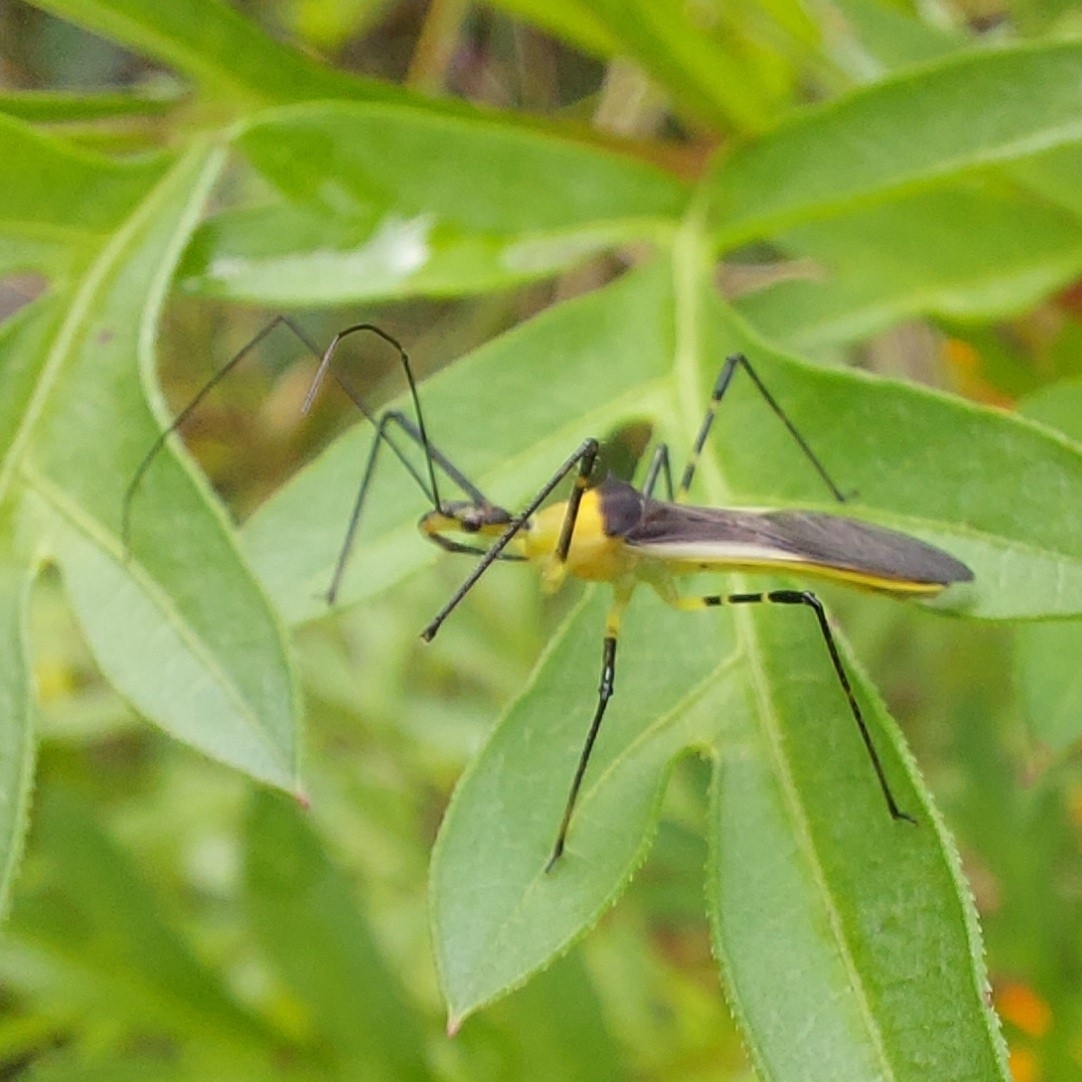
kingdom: Animalia
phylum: Arthropoda
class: Insecta
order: Hemiptera
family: Reduviidae
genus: Zelus
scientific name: Zelus versicolor
